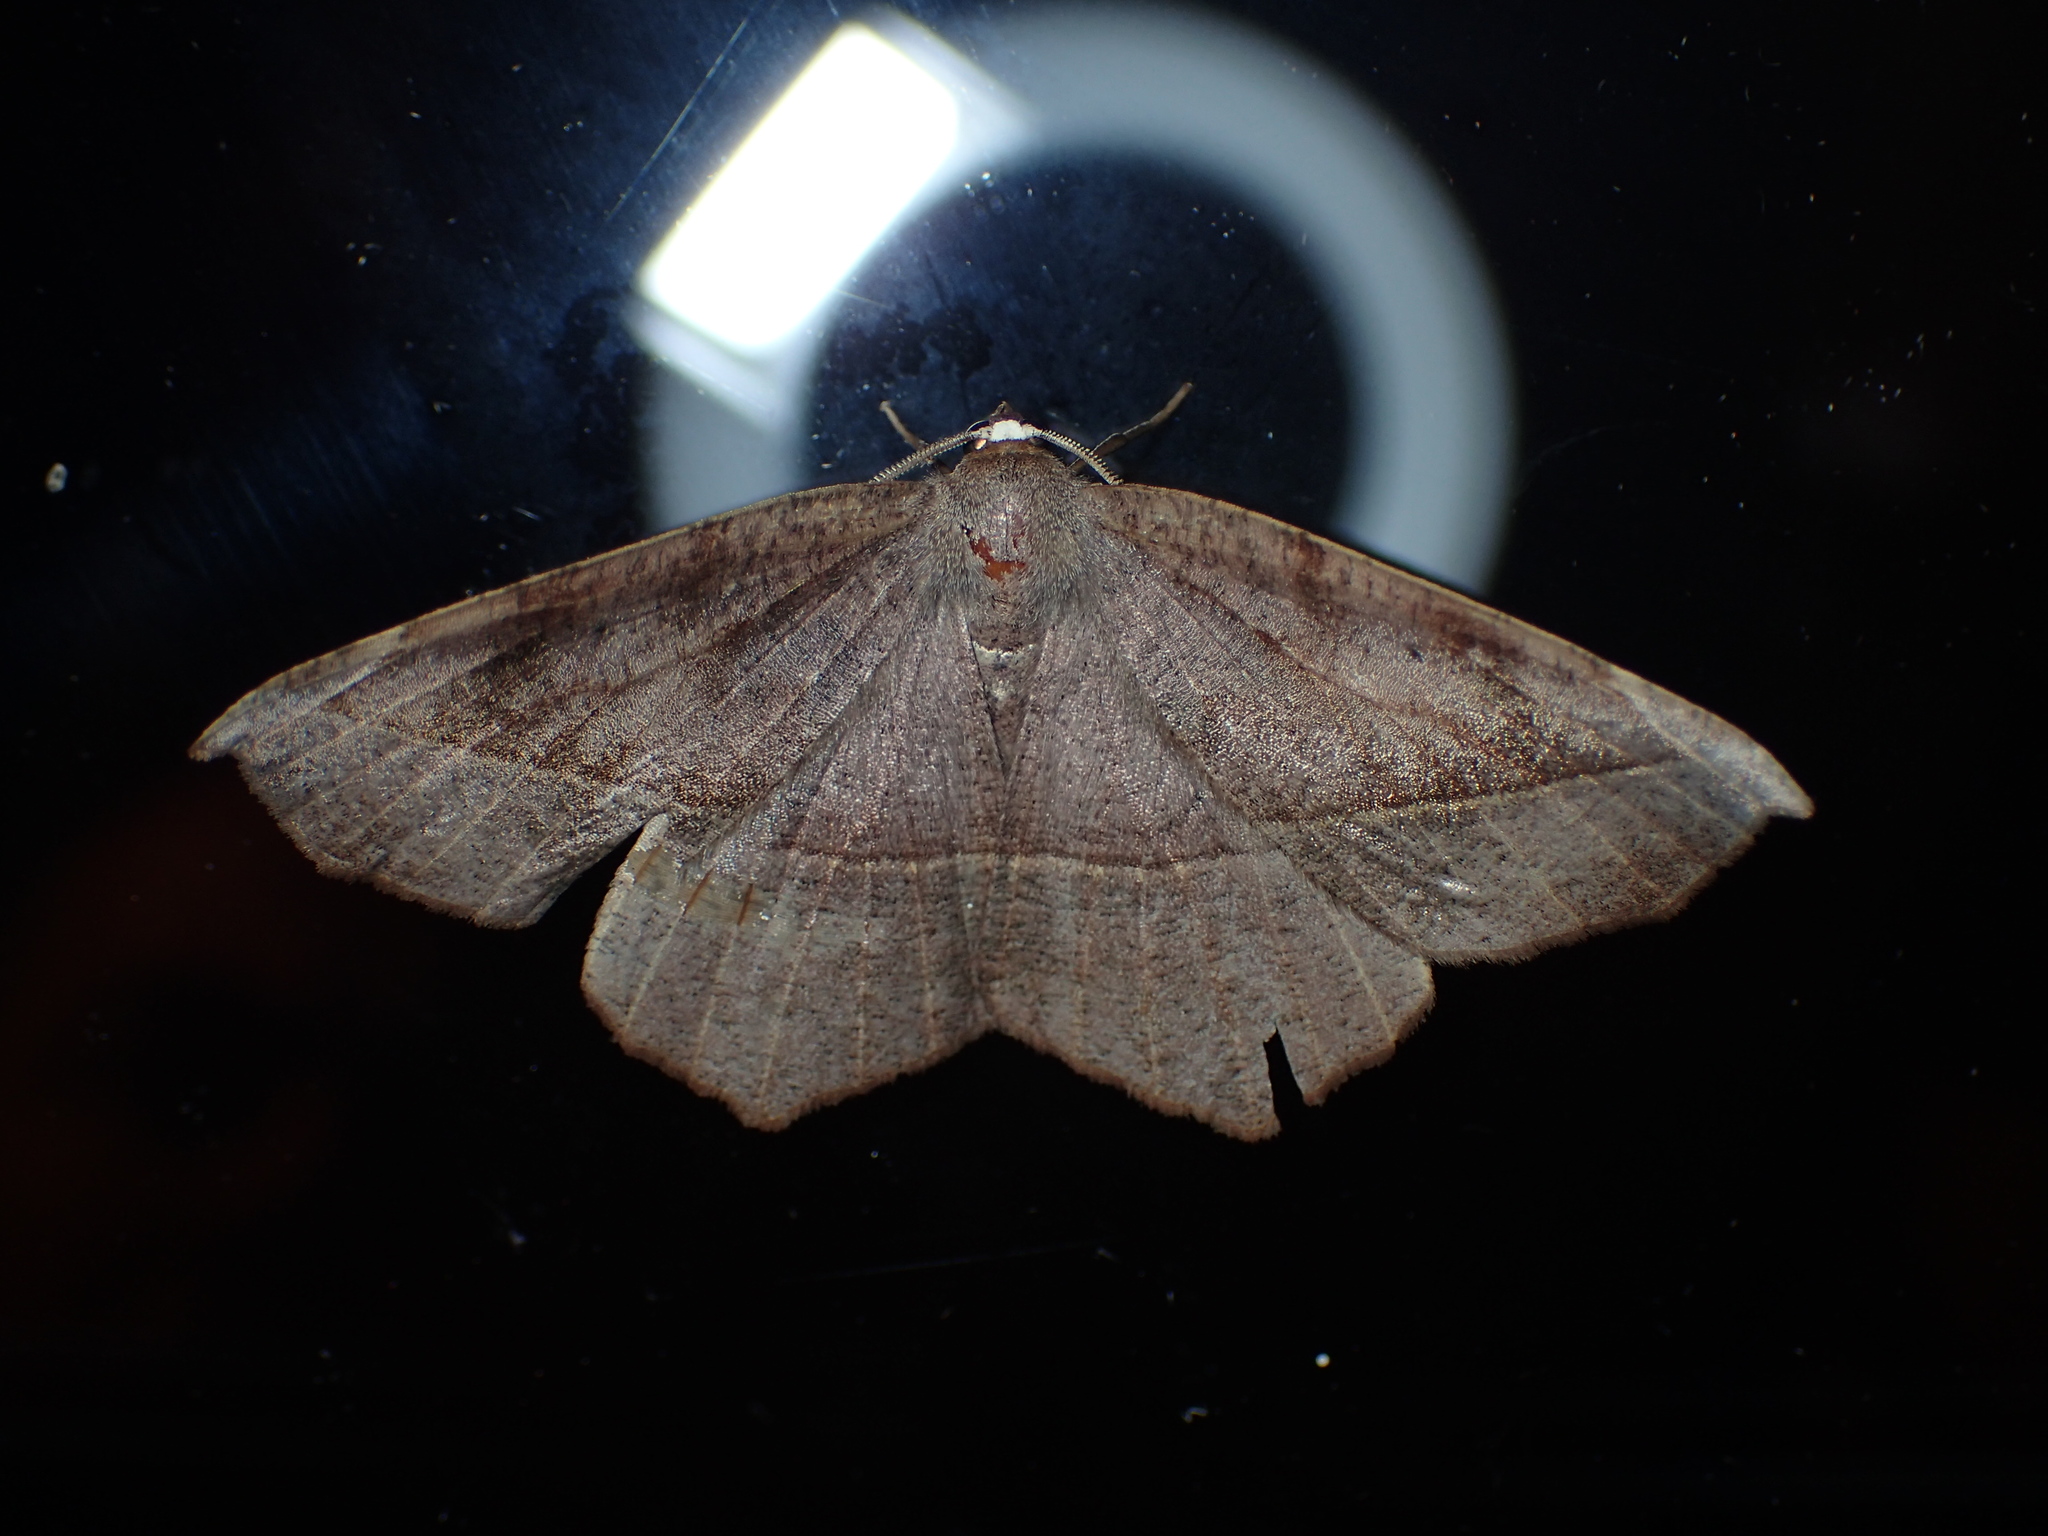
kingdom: Animalia
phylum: Arthropoda
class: Insecta
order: Lepidoptera
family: Geometridae
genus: Prochoerodes
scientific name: Prochoerodes lineola
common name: Large maple spanworm
